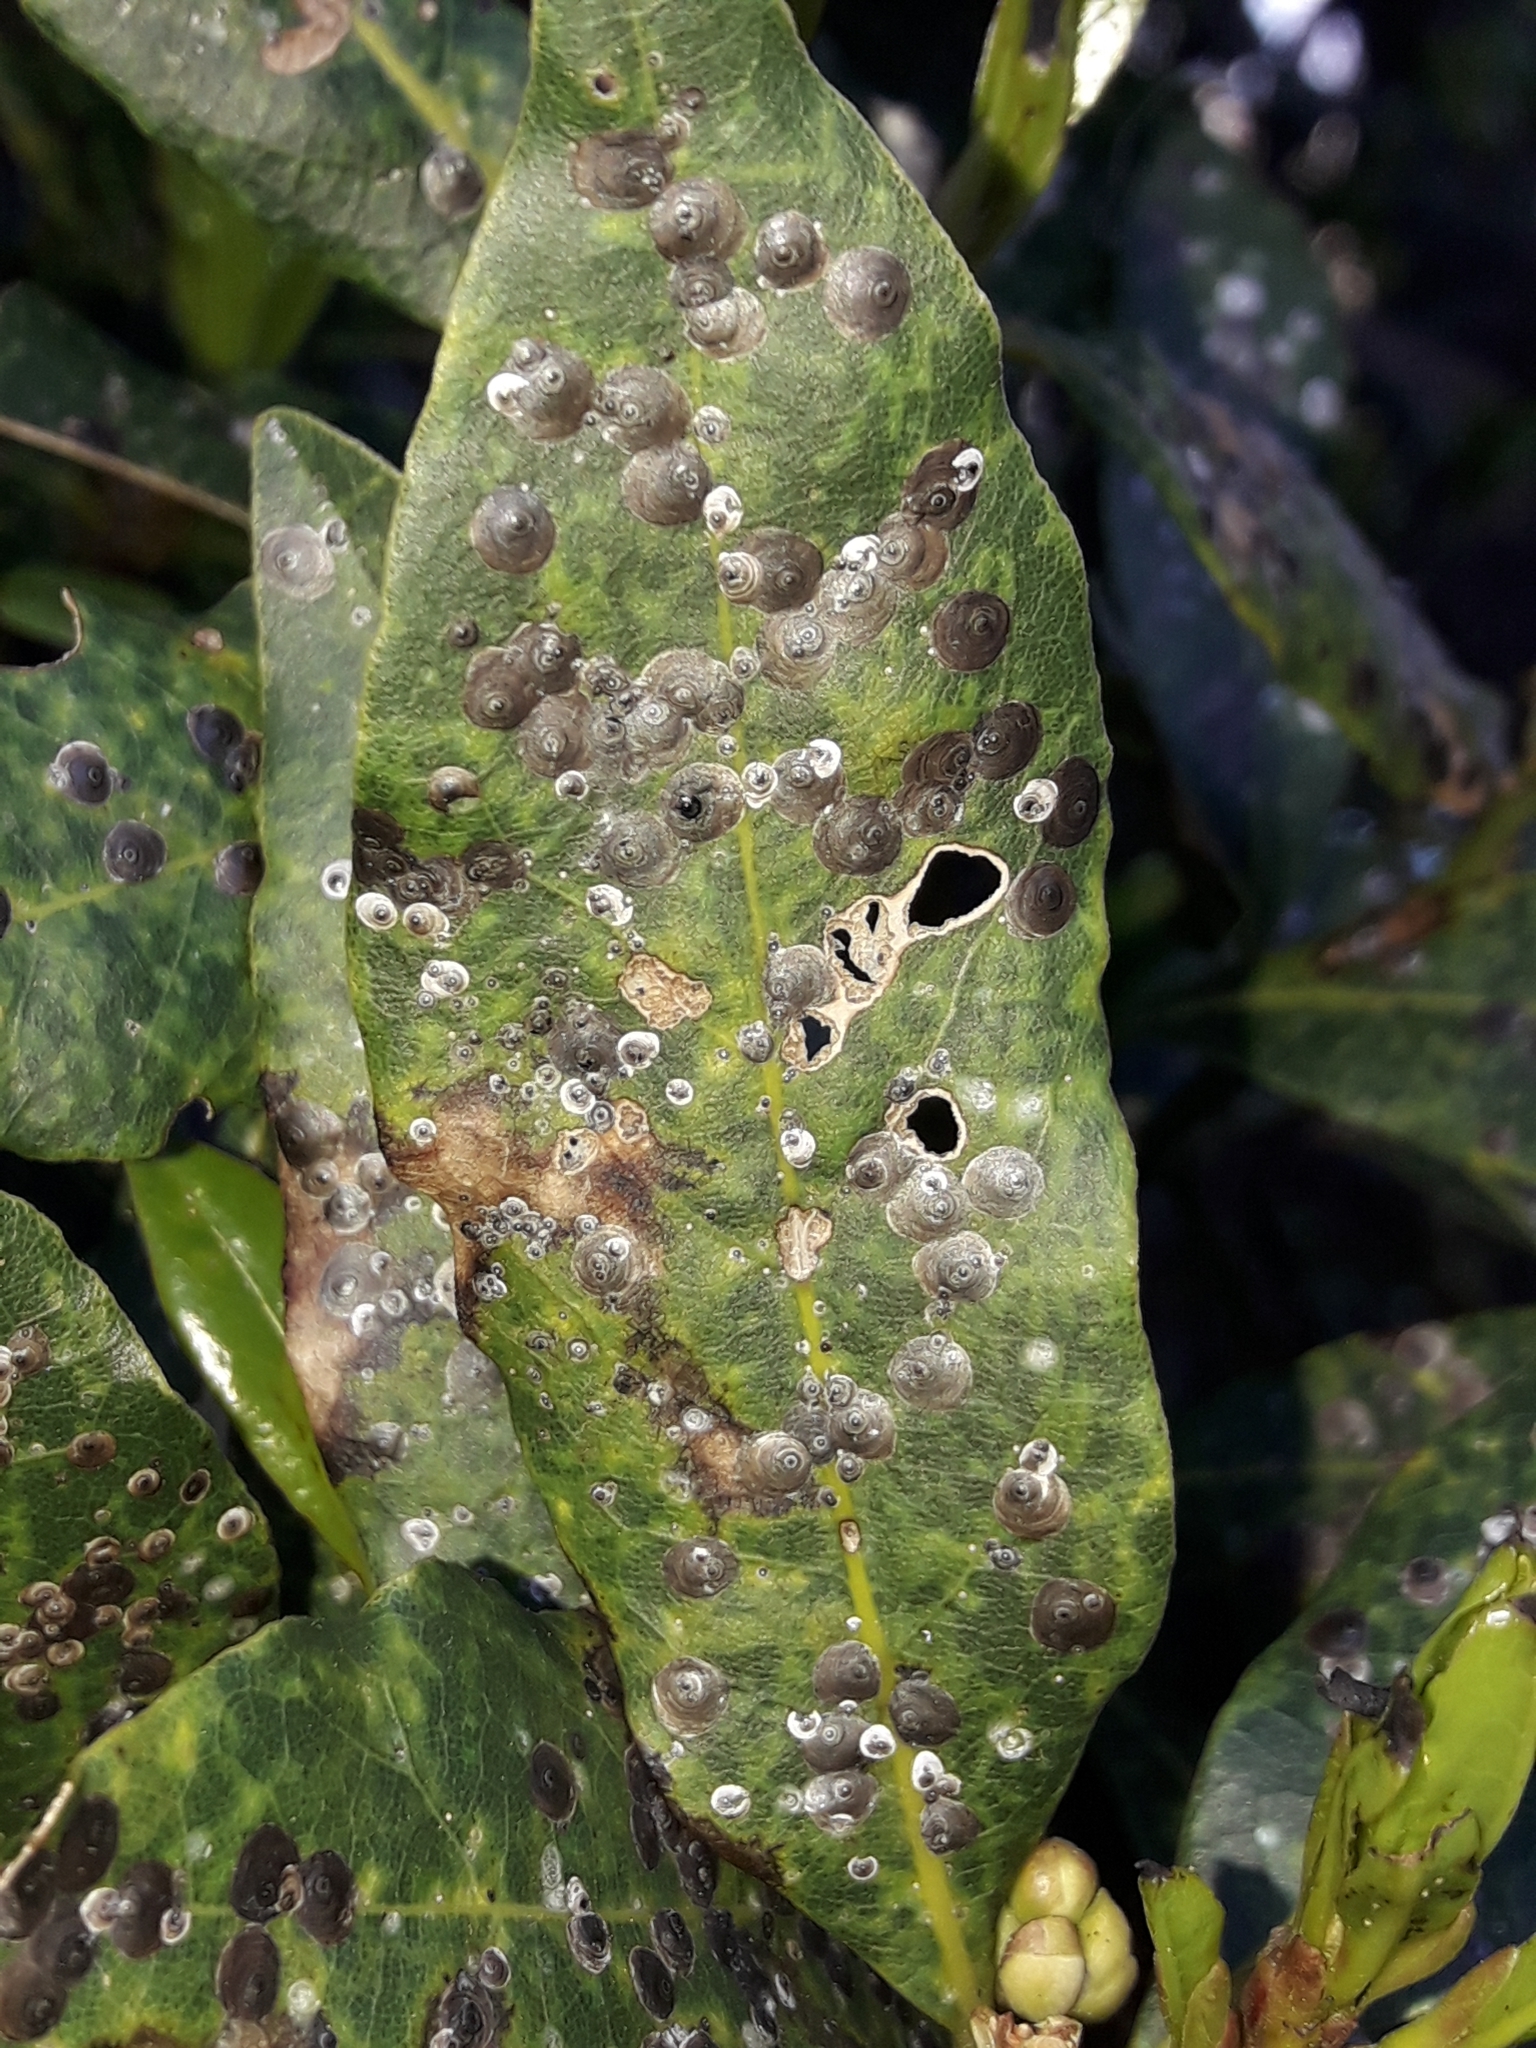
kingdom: Animalia
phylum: Arthropoda
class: Insecta
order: Hemiptera
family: Diaspididae
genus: Lindingaspis
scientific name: Lindingaspis rossi
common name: Araucaria black scale
